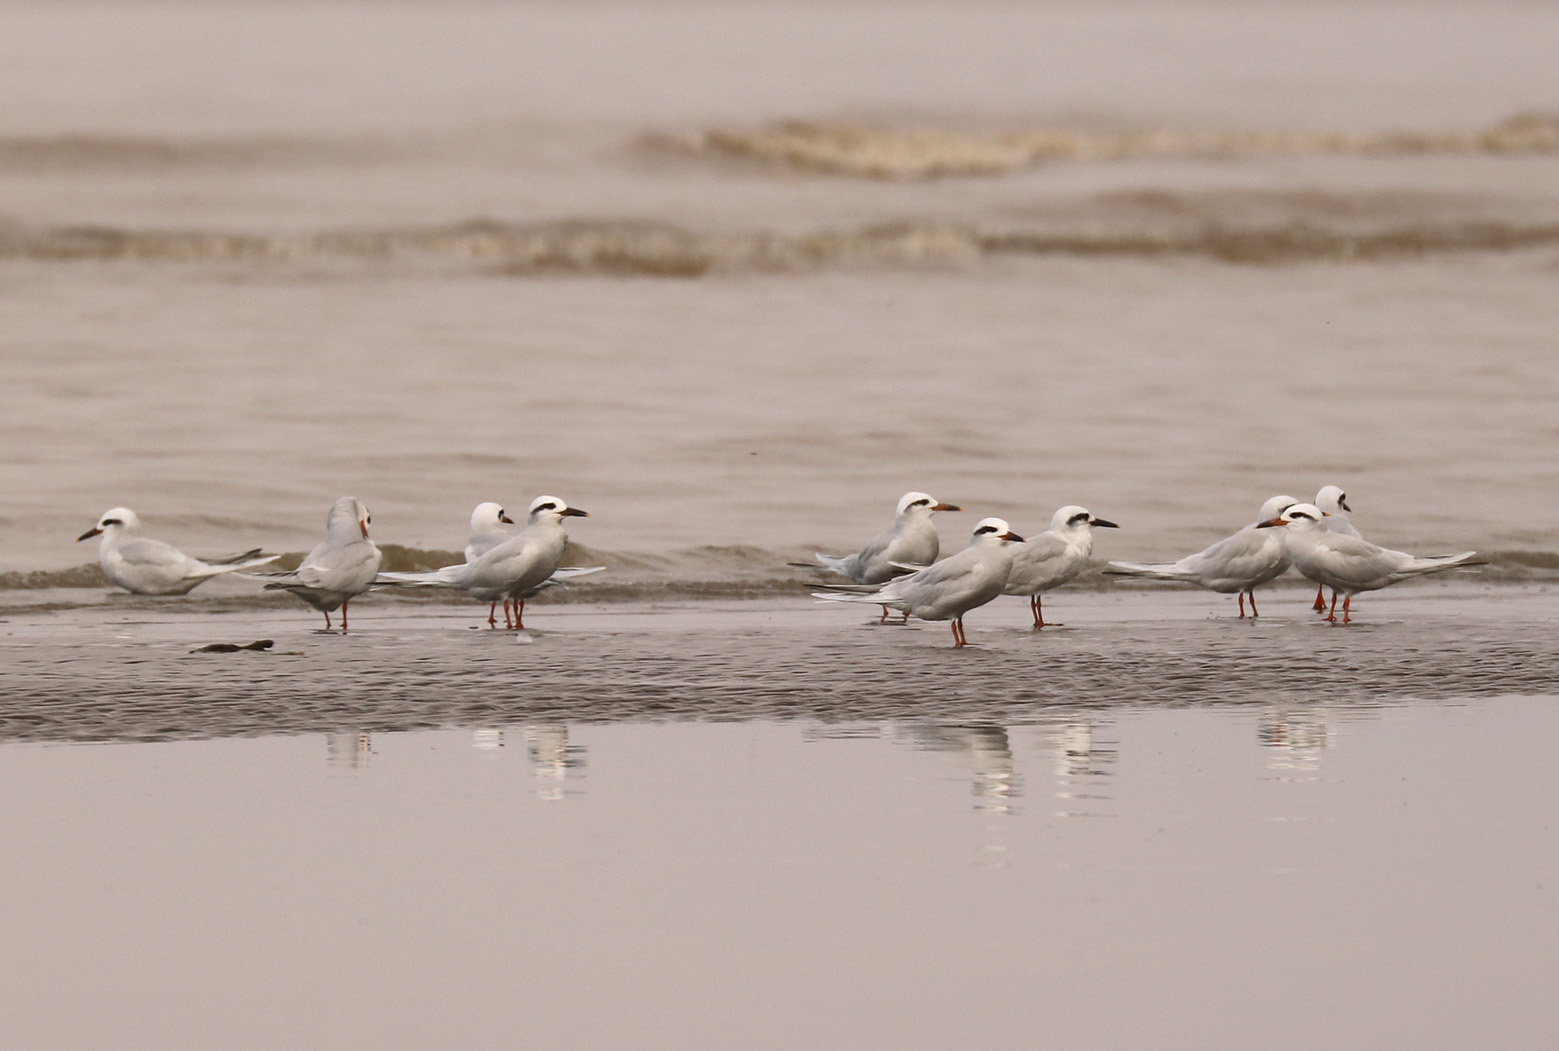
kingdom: Animalia
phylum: Chordata
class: Aves
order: Charadriiformes
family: Laridae
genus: Sterna
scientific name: Sterna trudeaui
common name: Snowy-crowned tern
